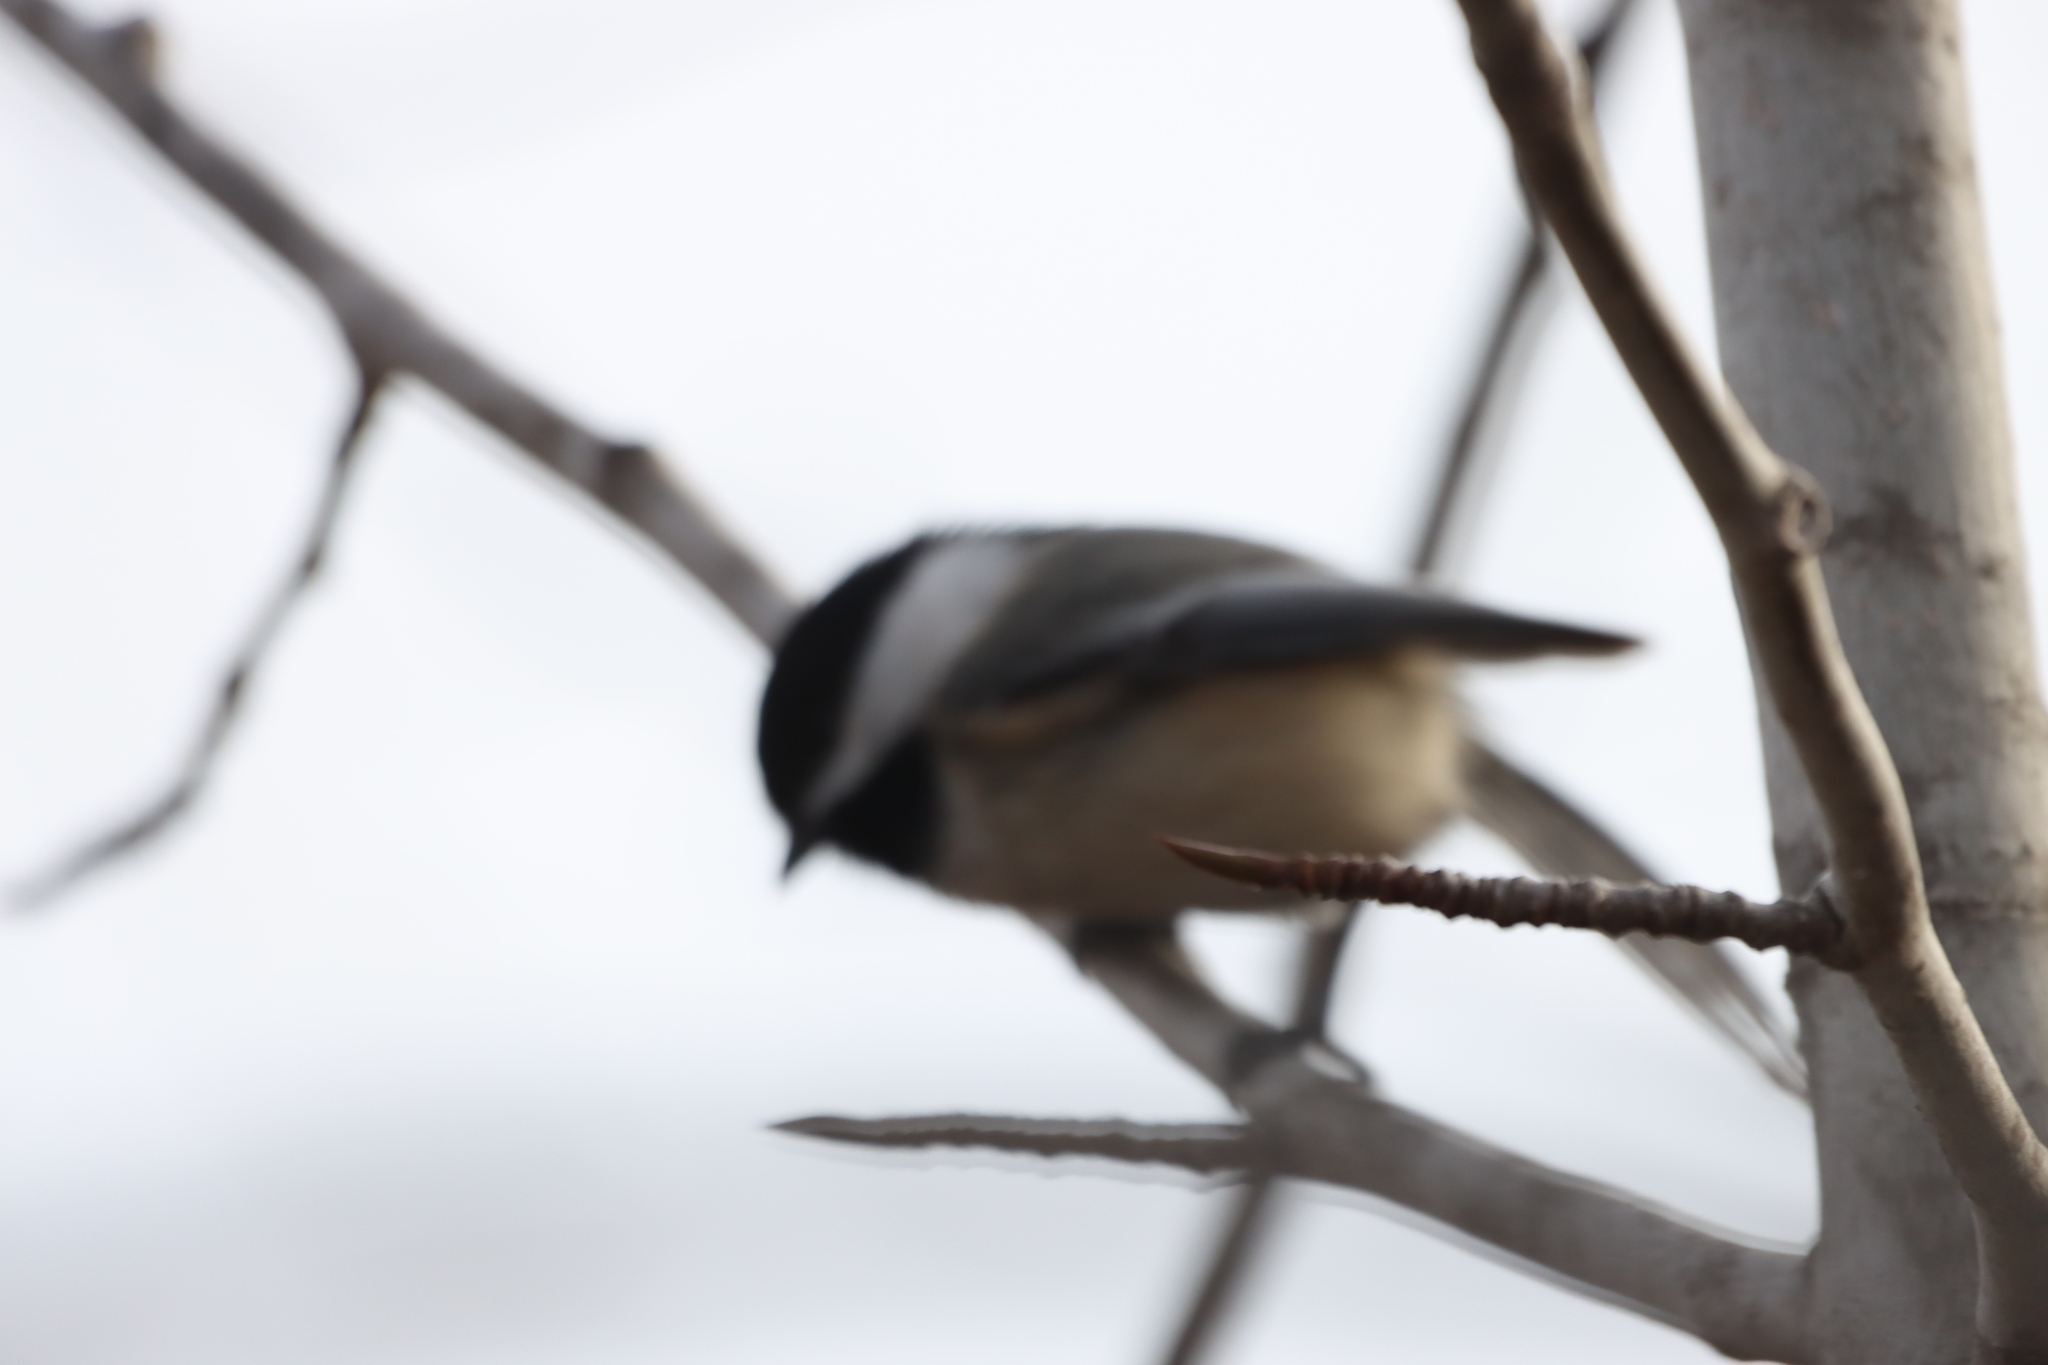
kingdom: Animalia
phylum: Chordata
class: Aves
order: Passeriformes
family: Paridae
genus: Poecile
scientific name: Poecile atricapillus
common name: Black-capped chickadee
